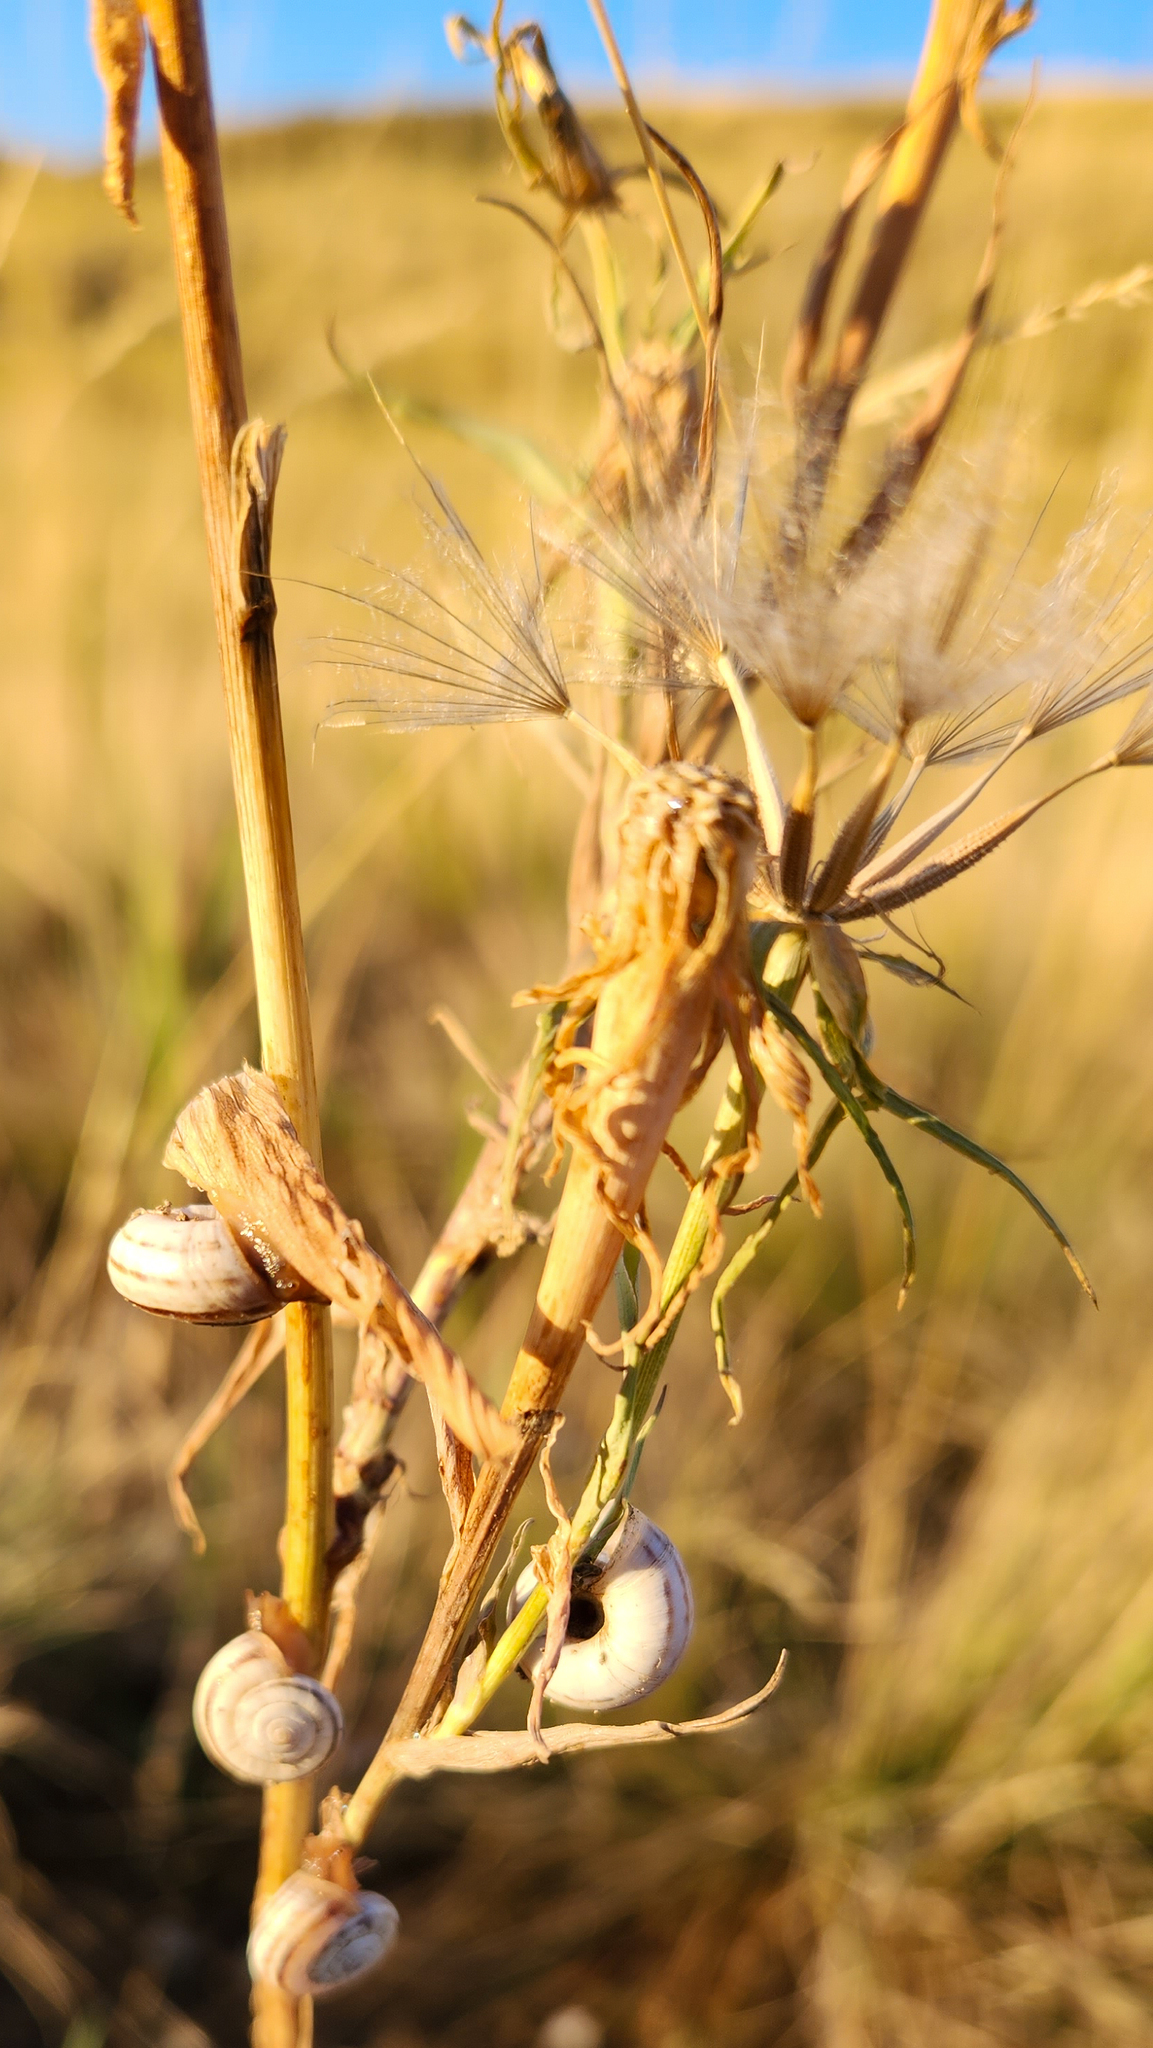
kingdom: Animalia
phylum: Mollusca
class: Gastropoda
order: Stylommatophora
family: Geomitridae
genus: Xerolenta
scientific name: Xerolenta obvia
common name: White heath snail
